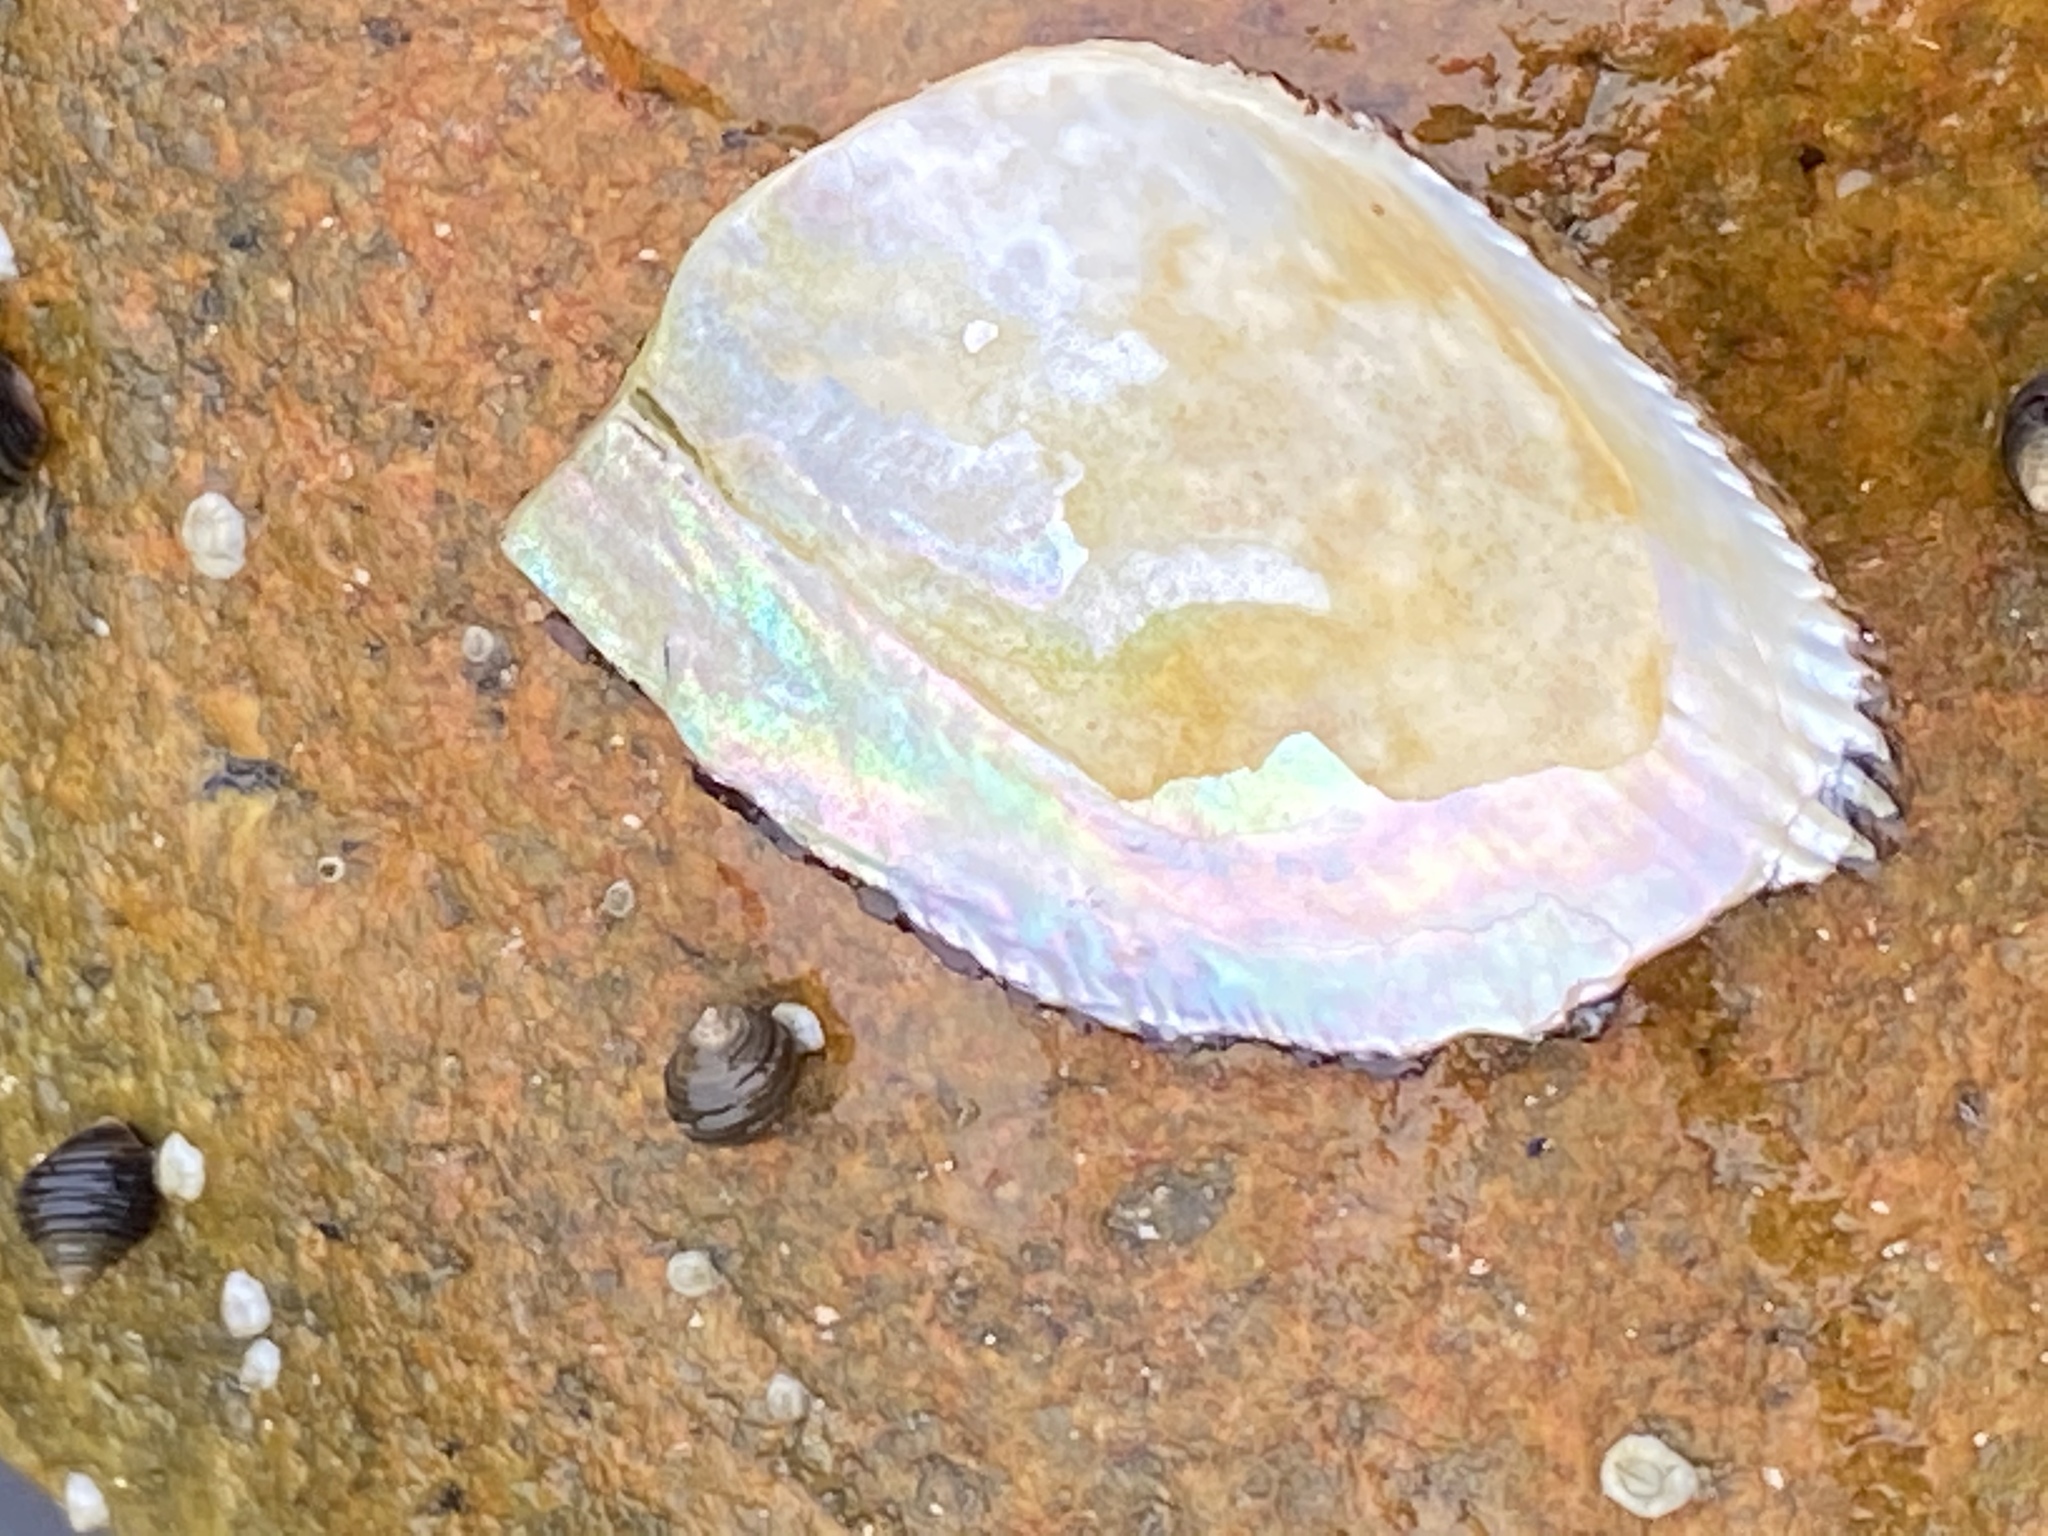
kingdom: Animalia
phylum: Mollusca
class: Bivalvia
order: Mytilida
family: Mytilidae
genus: Geukensia
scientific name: Geukensia demissa
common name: Ribbed mussel
